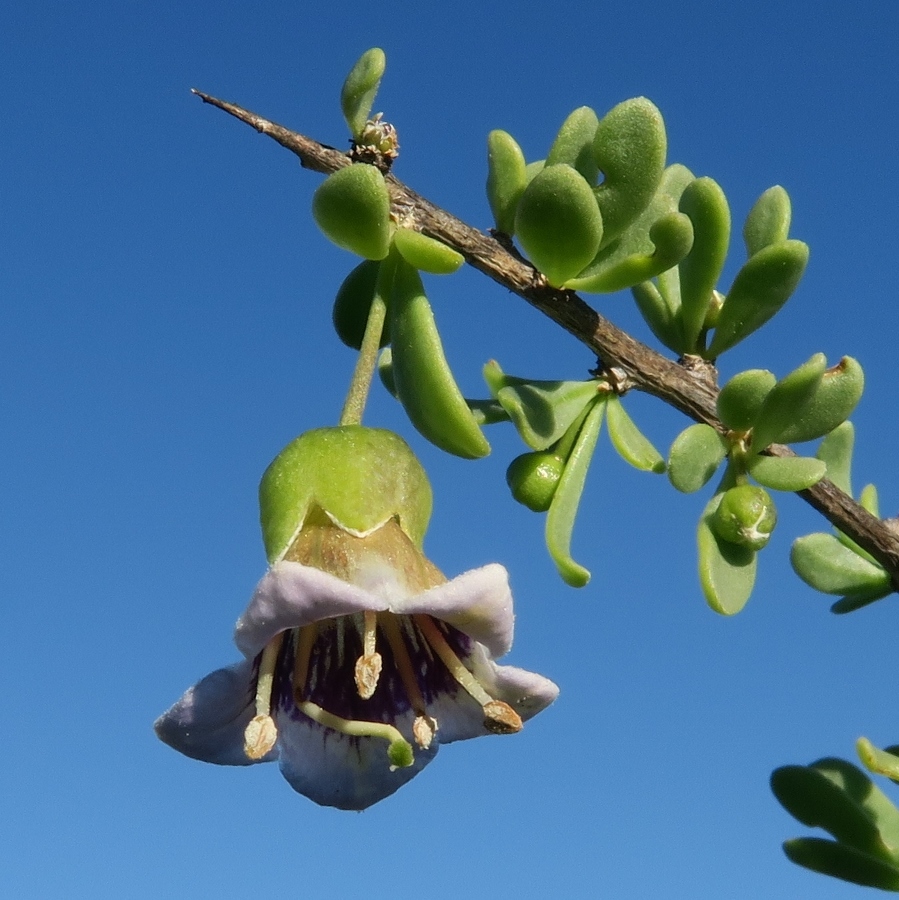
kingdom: Plantae
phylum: Tracheophyta
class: Magnoliopsida
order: Solanales
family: Solanaceae
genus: Lycium
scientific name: Lycium amoenum
